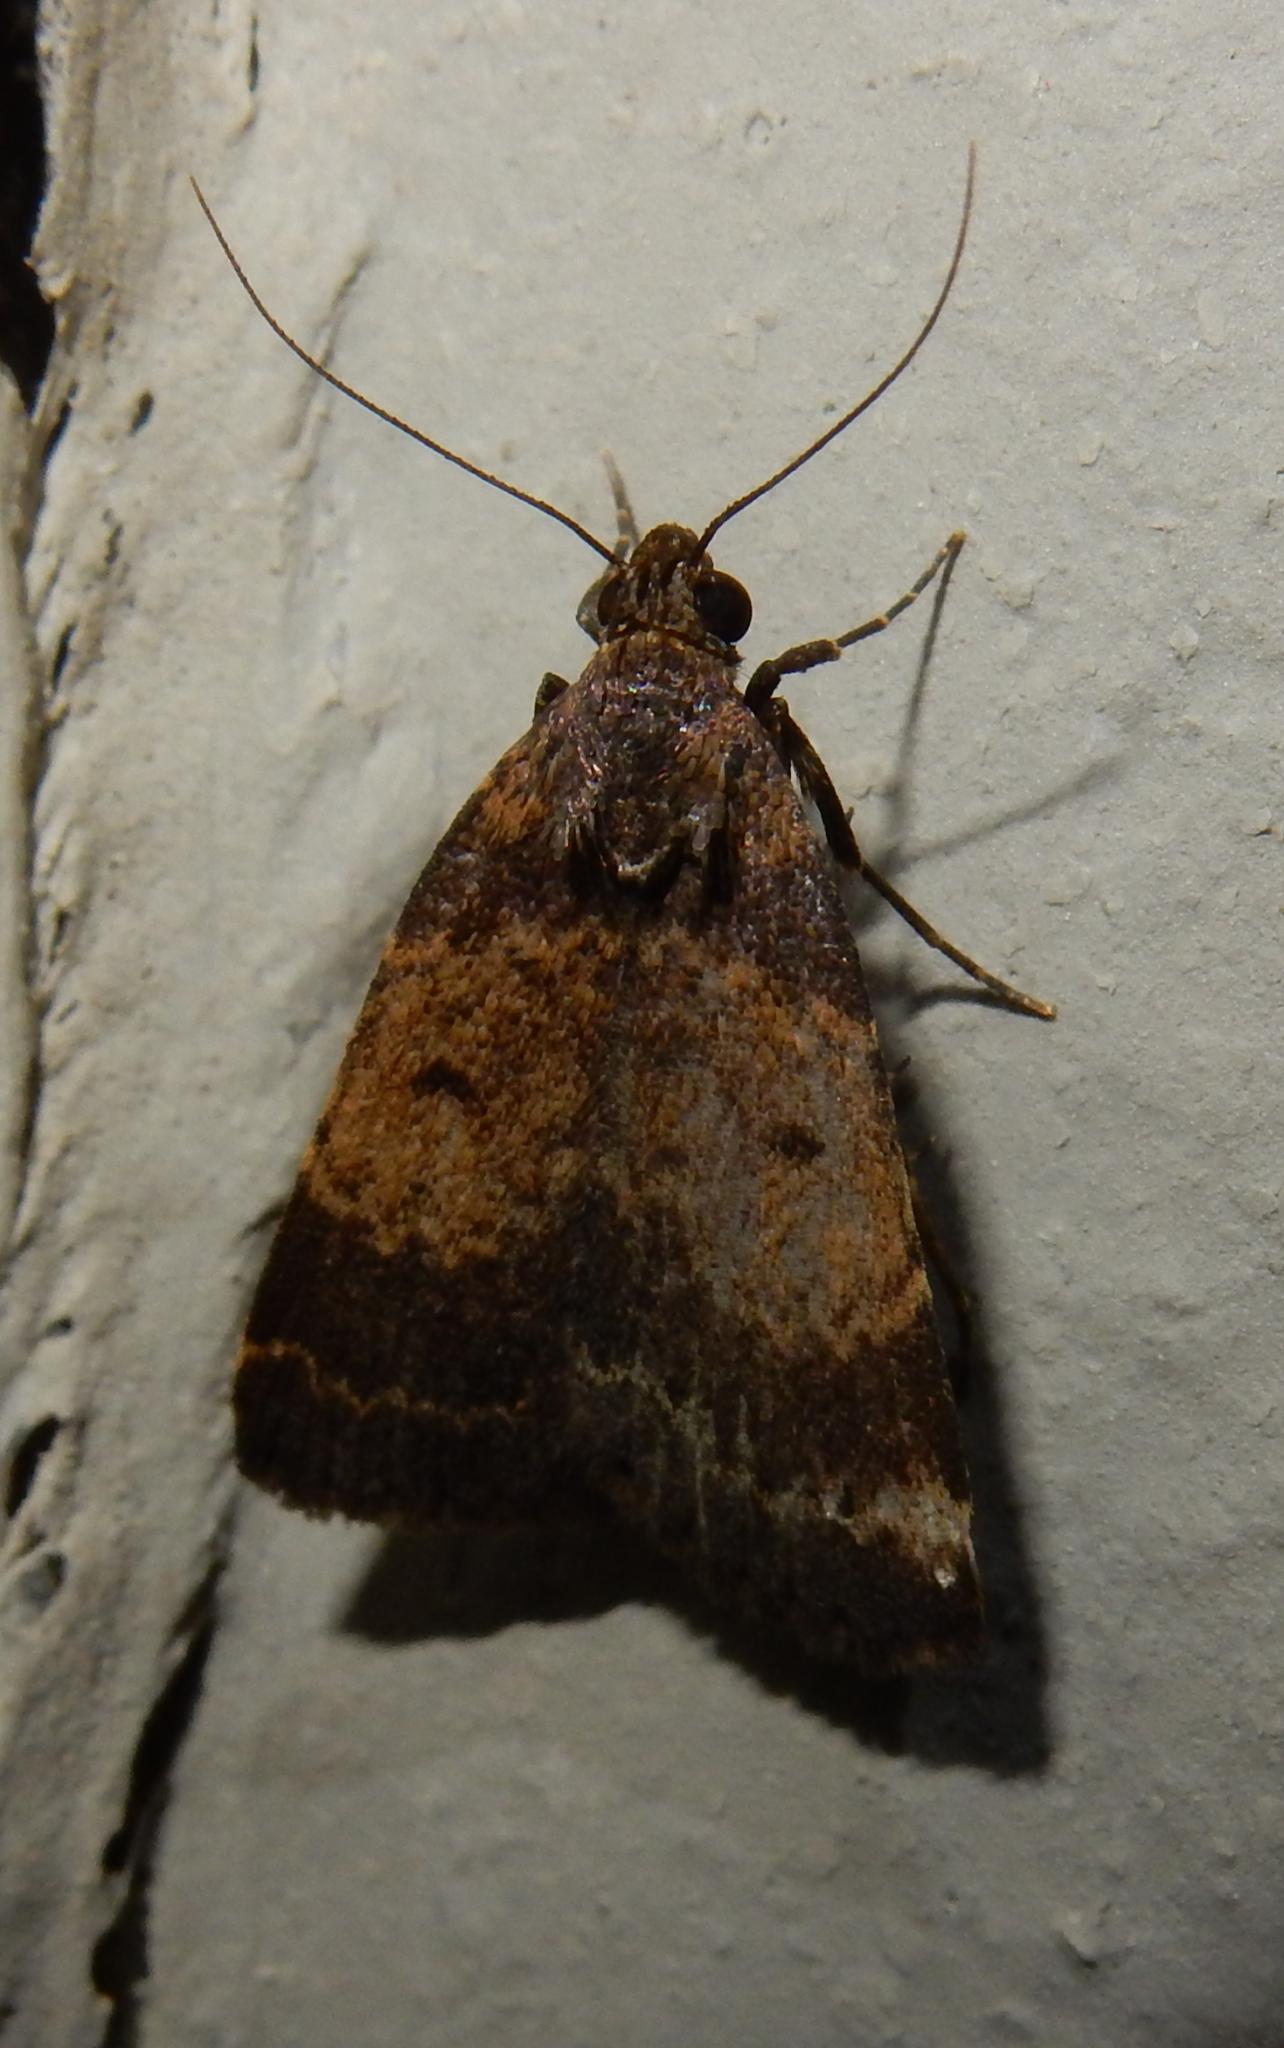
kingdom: Animalia
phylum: Arthropoda
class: Insecta
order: Lepidoptera
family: Erebidae
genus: Hydrillodes
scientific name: Hydrillodes uliginosalis
